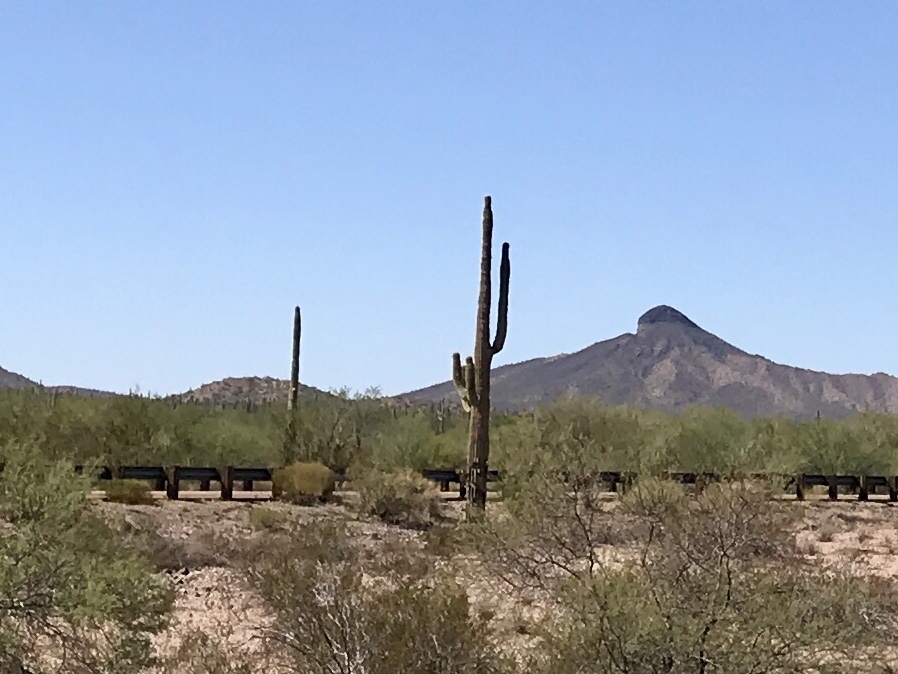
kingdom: Plantae
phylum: Tracheophyta
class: Magnoliopsida
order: Caryophyllales
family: Cactaceae
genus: Carnegiea
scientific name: Carnegiea gigantea
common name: Saguaro
